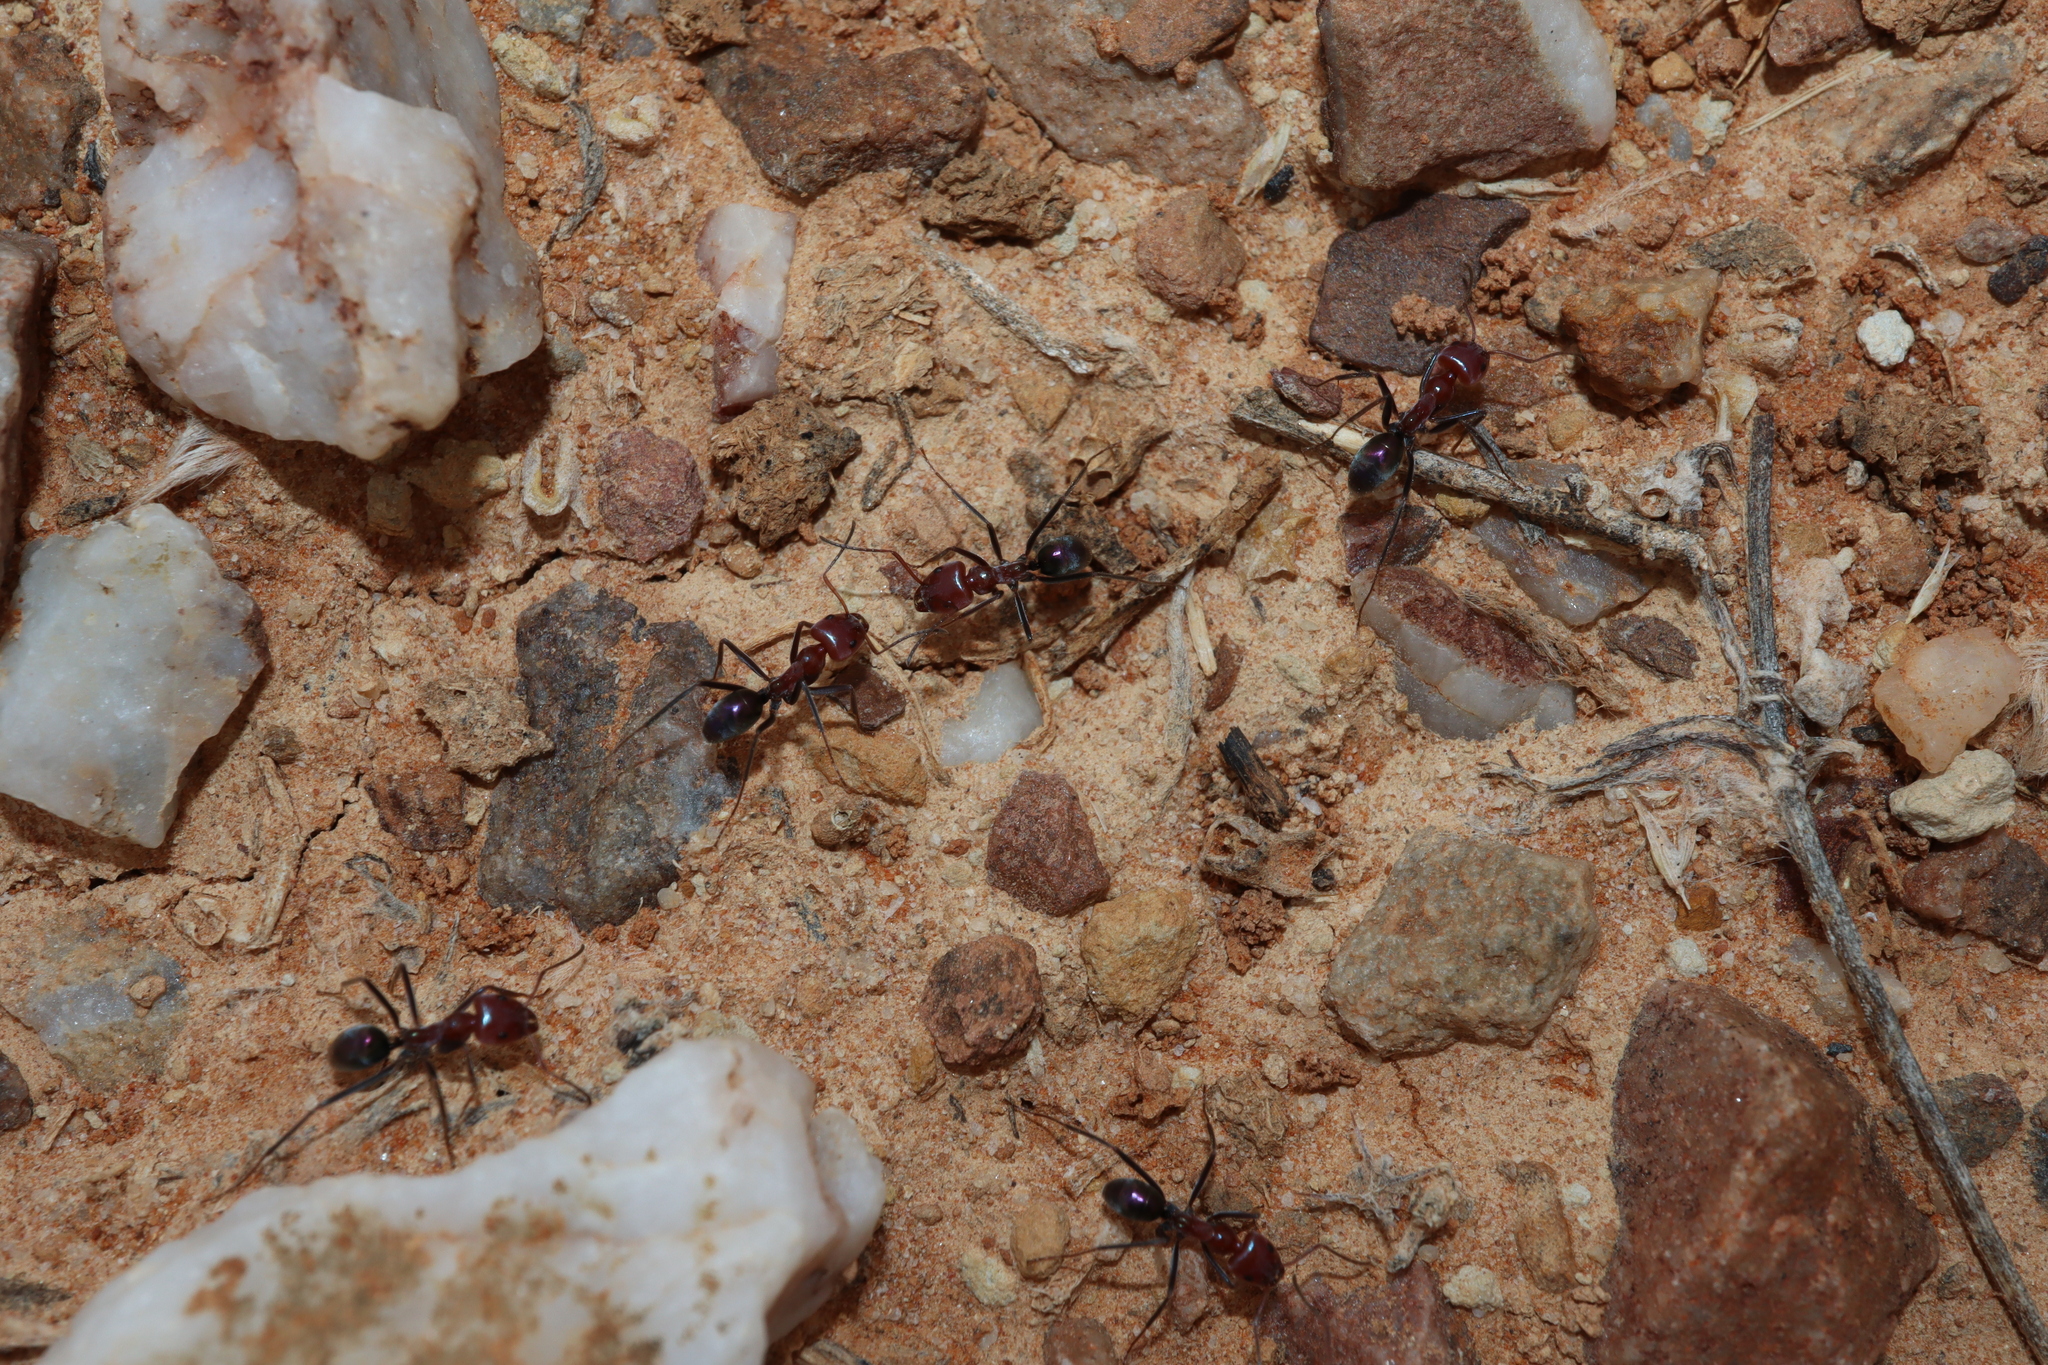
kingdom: Animalia
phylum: Arthropoda
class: Insecta
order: Hymenoptera
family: Formicidae
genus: Iridomyrmex
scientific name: Iridomyrmex purpureus
